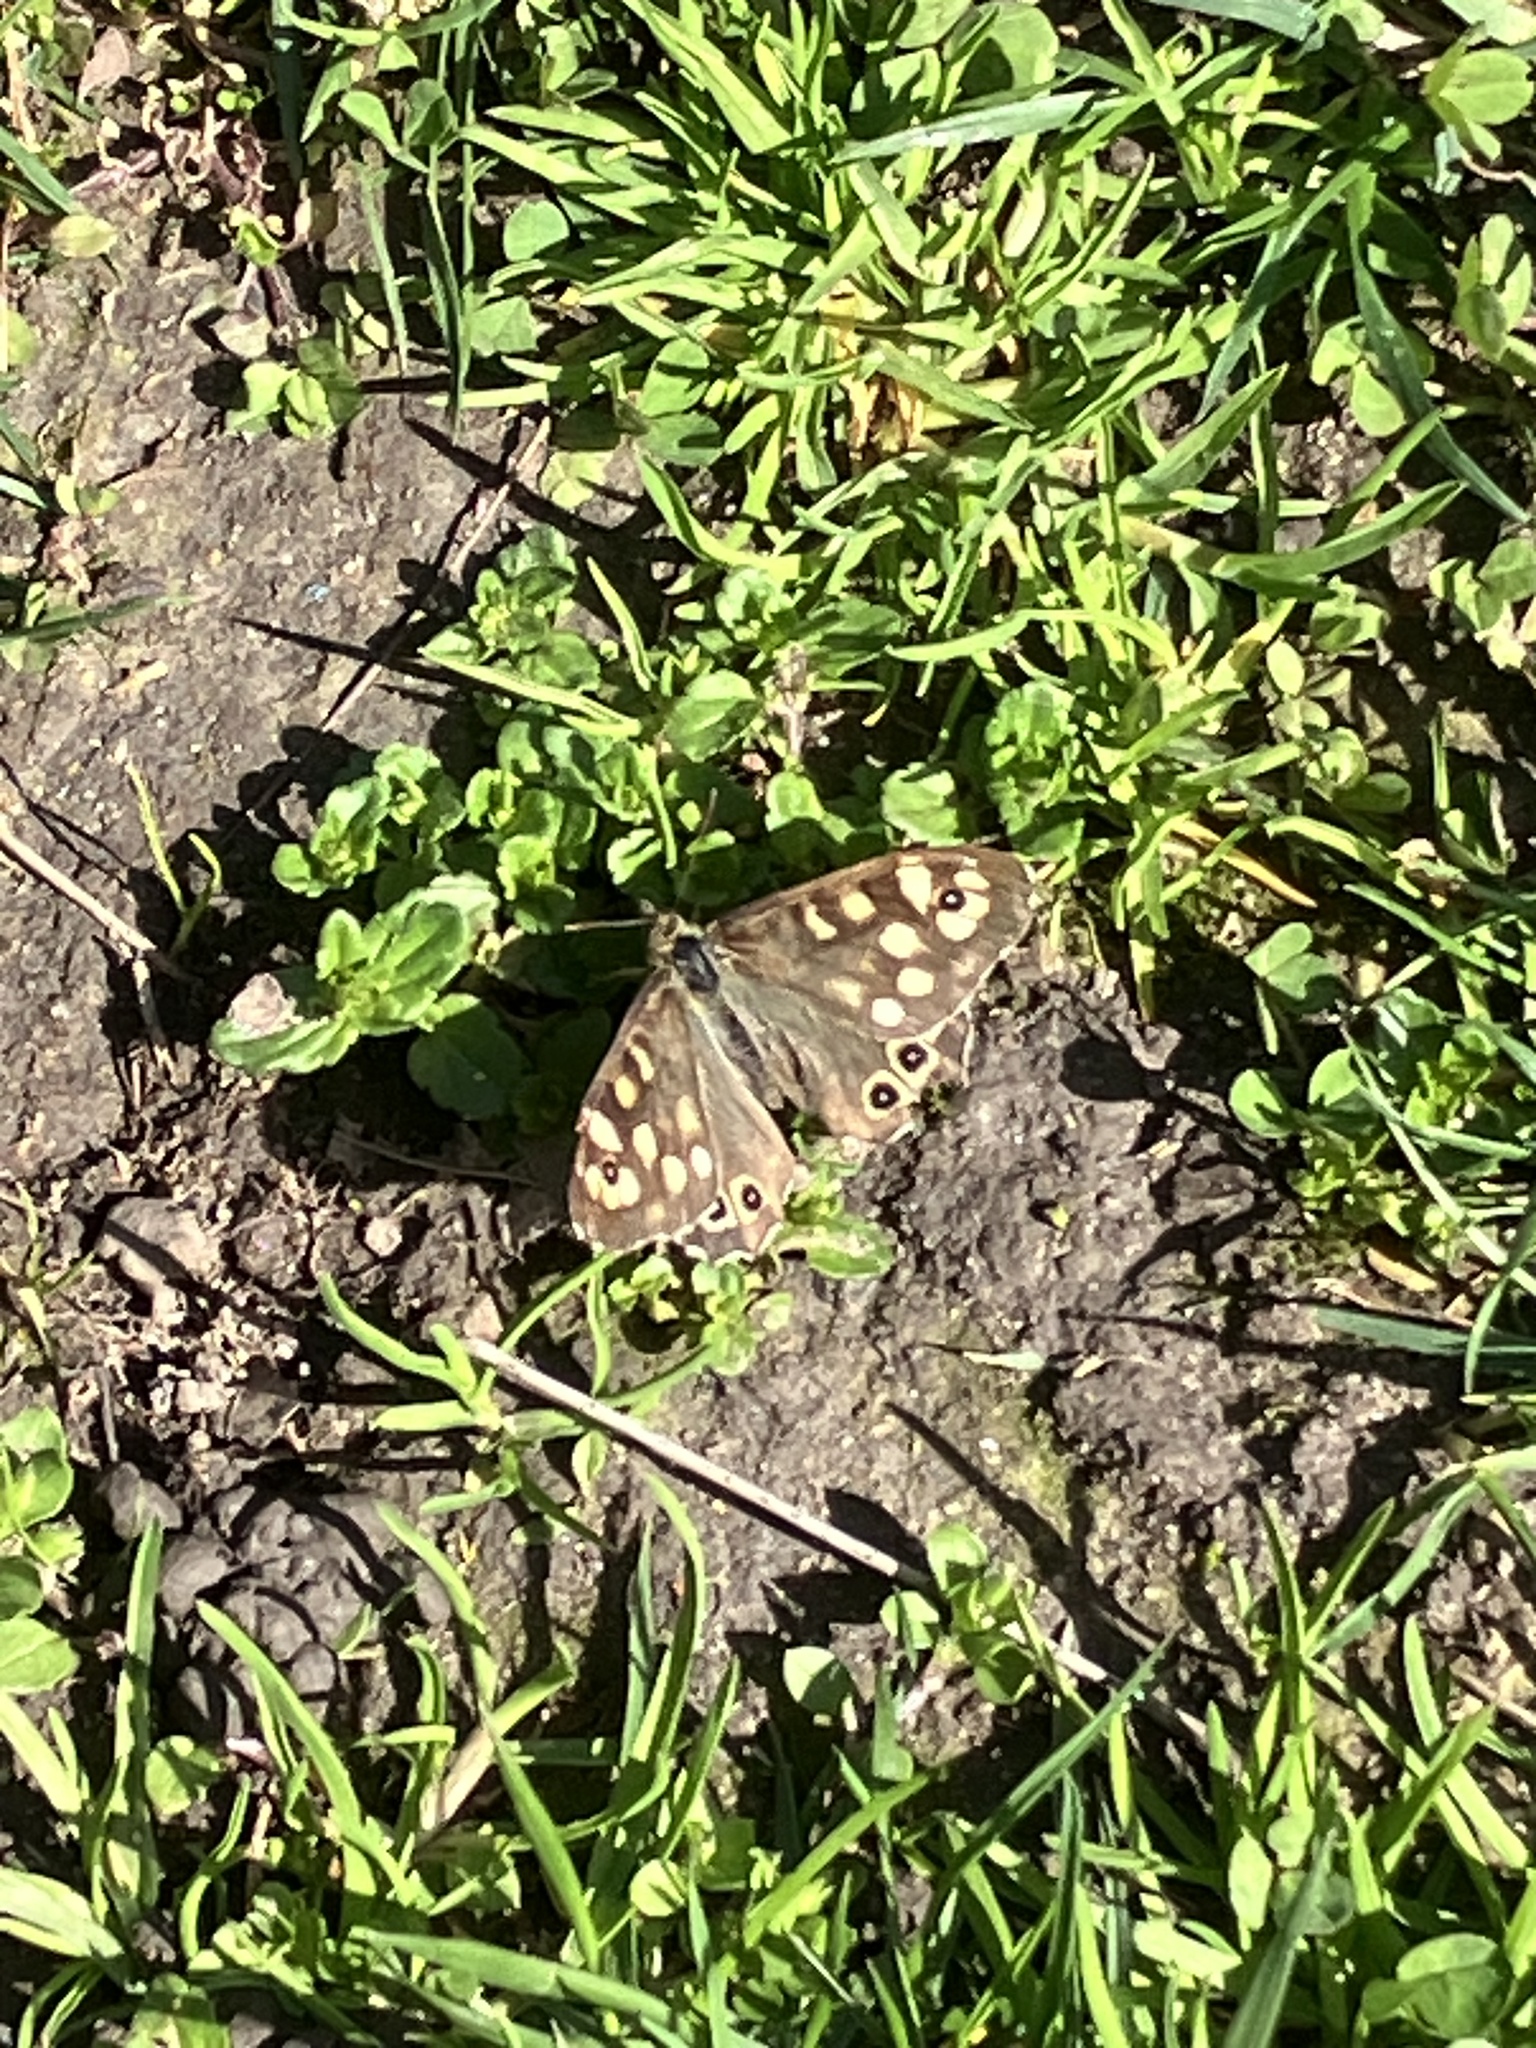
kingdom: Animalia
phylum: Arthropoda
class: Insecta
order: Lepidoptera
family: Nymphalidae
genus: Pararge
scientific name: Pararge aegeria
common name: Speckled wood
